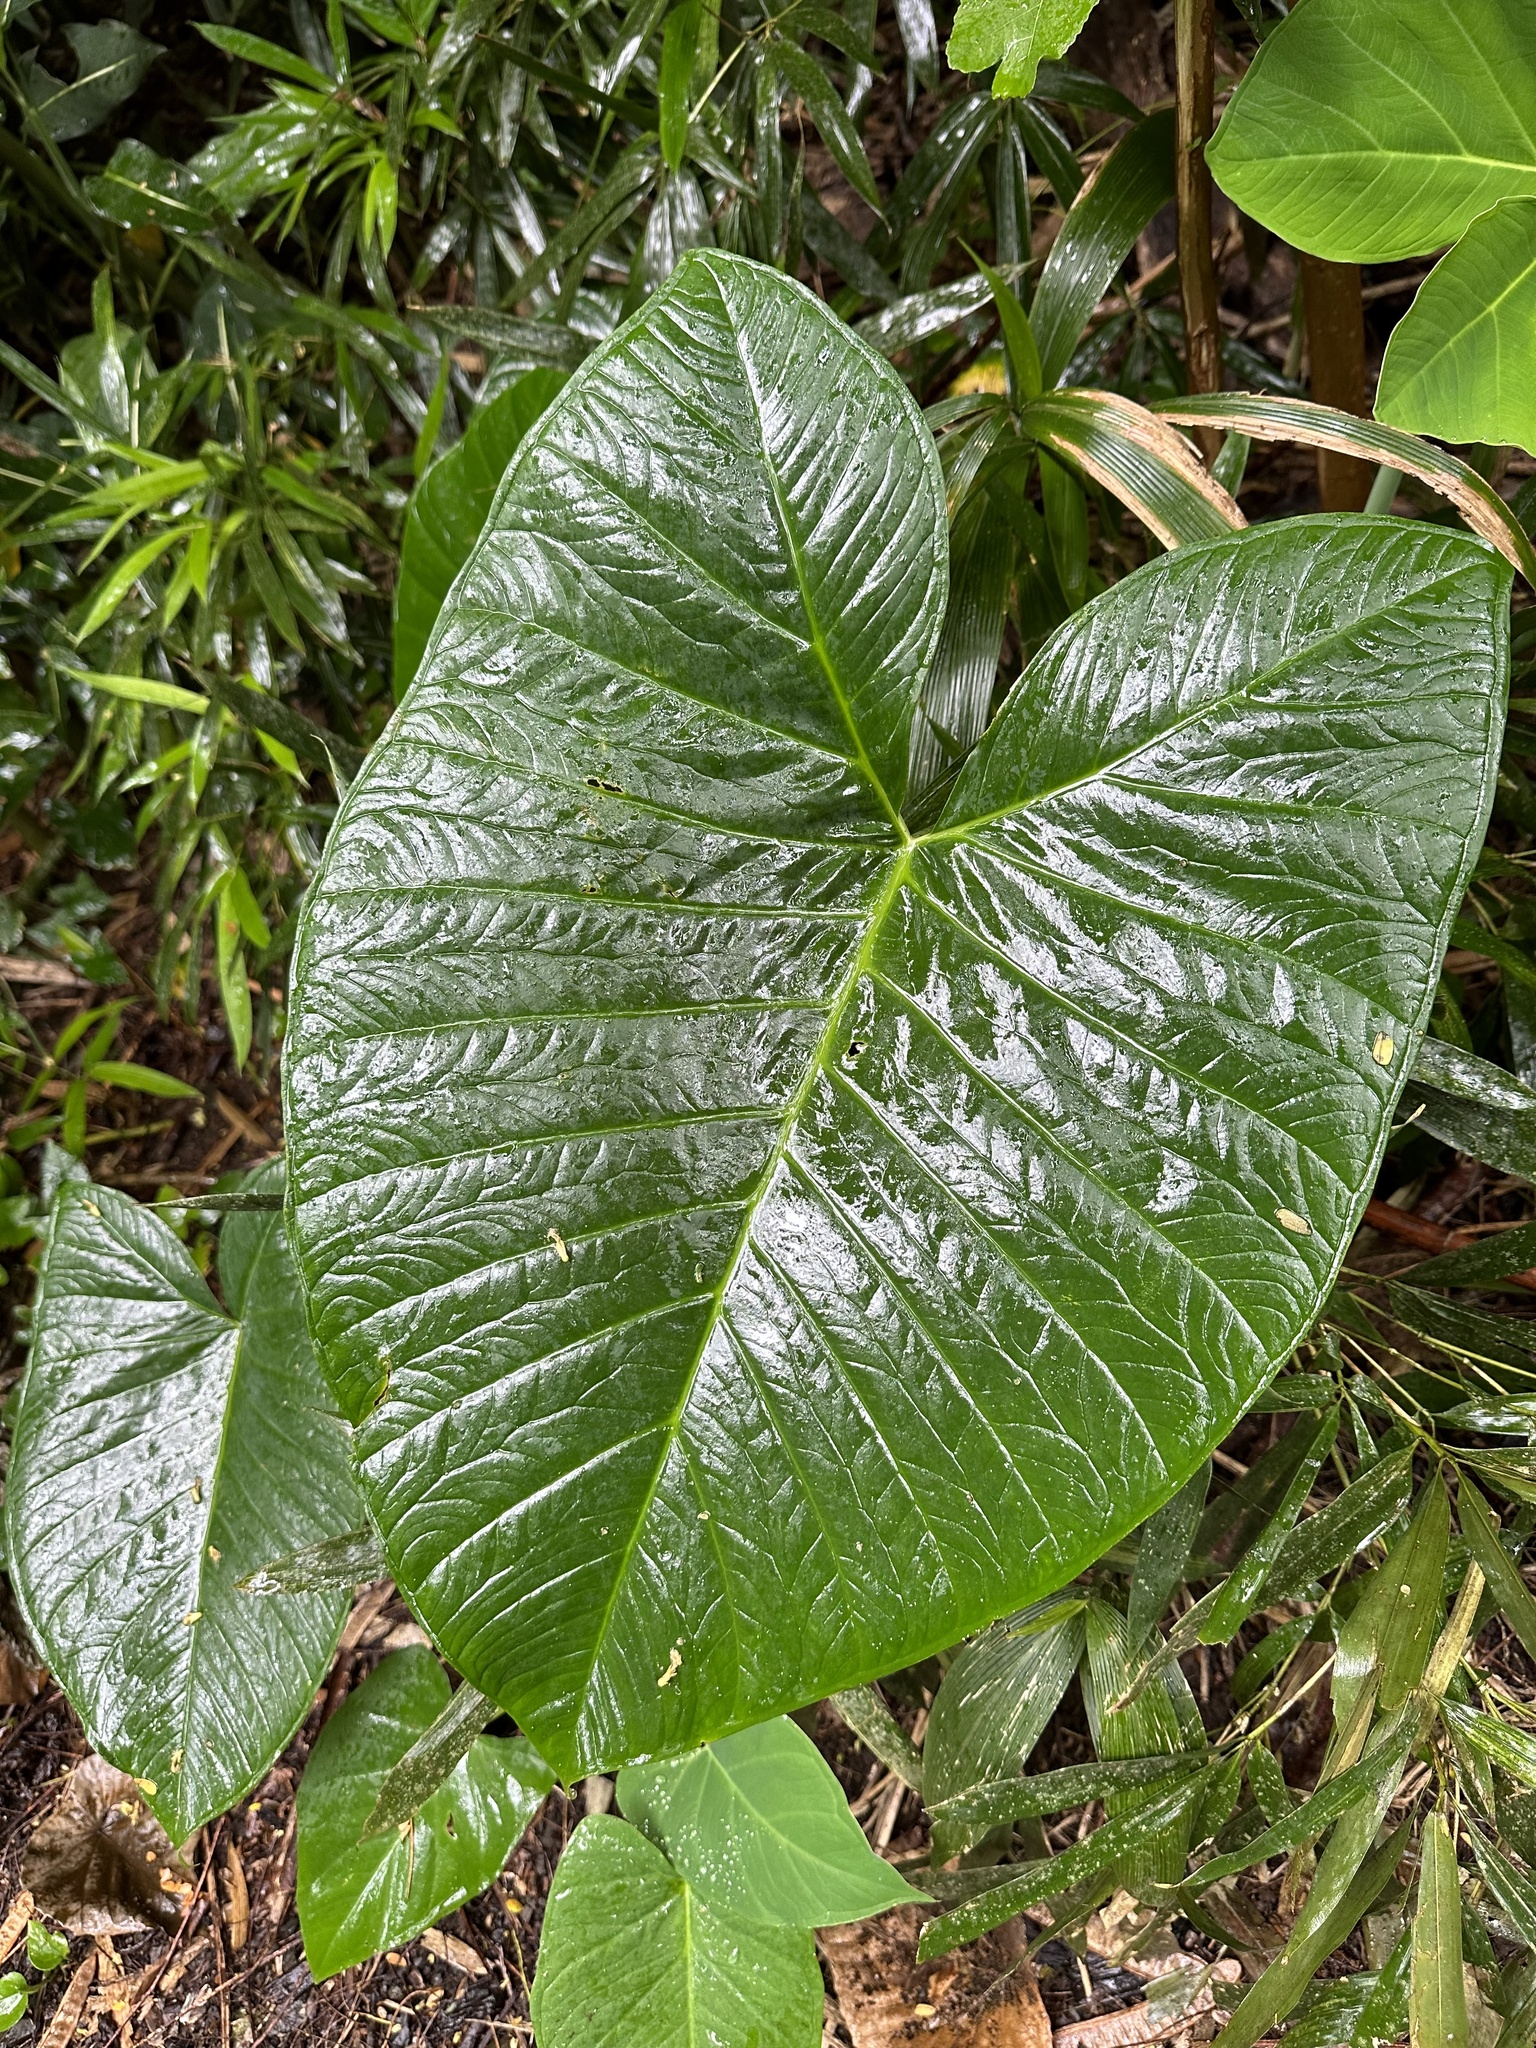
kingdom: Plantae
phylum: Tracheophyta
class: Liliopsida
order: Alismatales
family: Araceae
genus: Xanthosoma
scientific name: Xanthosoma robustum
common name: Capote
